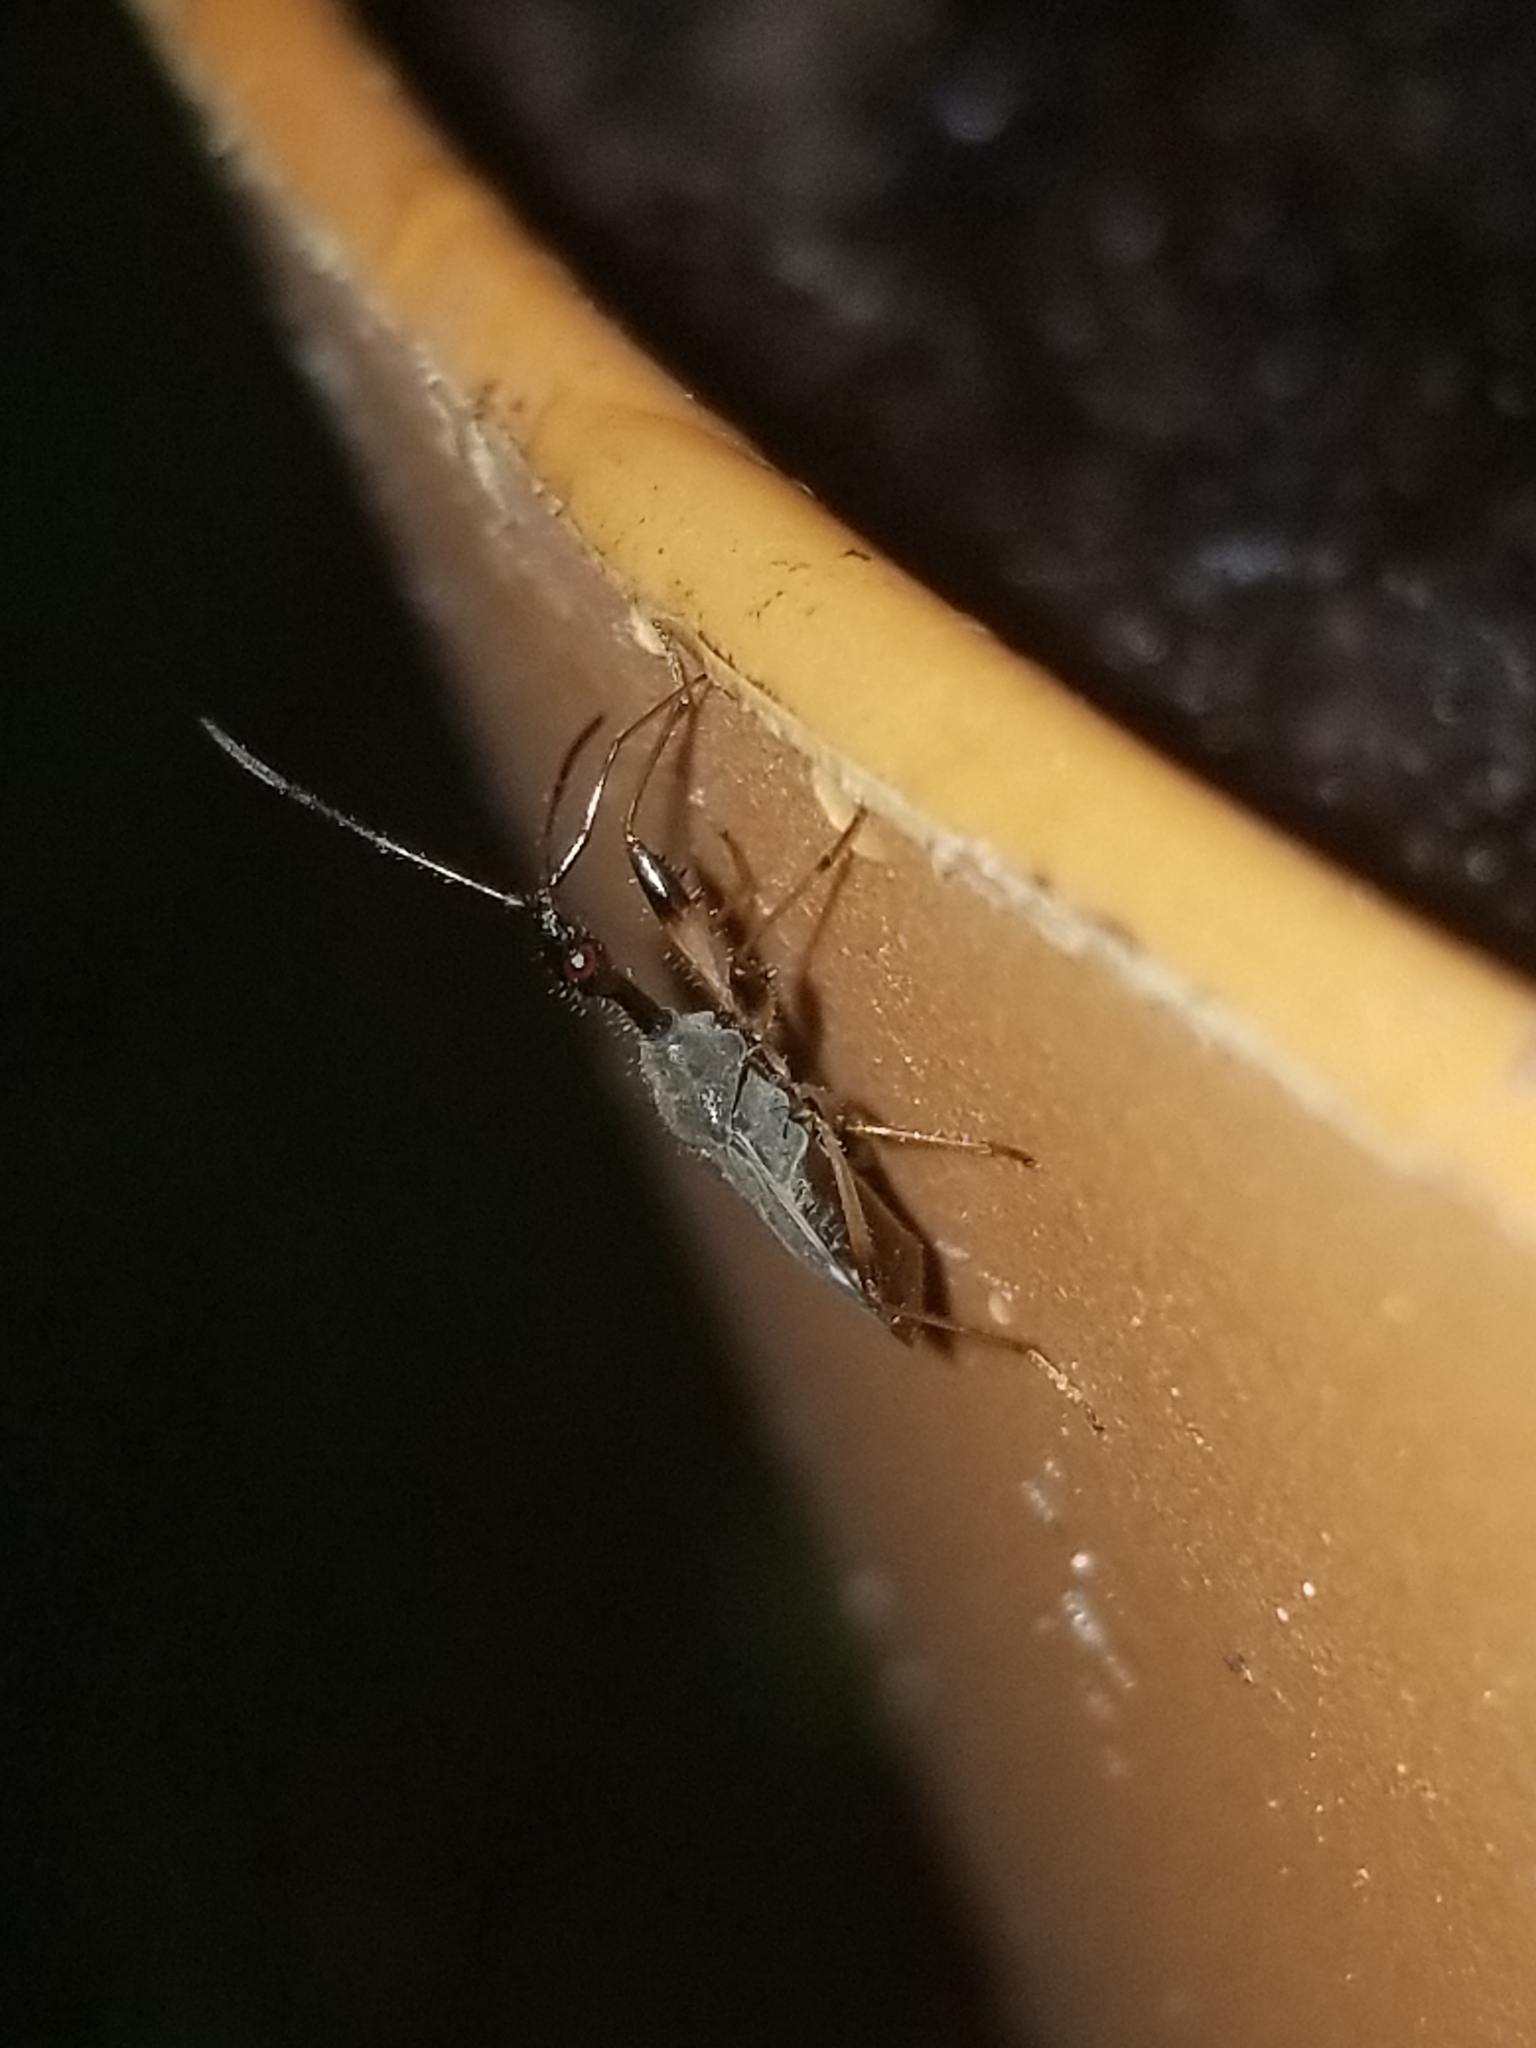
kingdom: Animalia
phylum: Arthropoda
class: Insecta
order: Hemiptera
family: Rhyparochromidae
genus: Myodocha
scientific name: Myodocha serripes
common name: Long-necked seed bug
